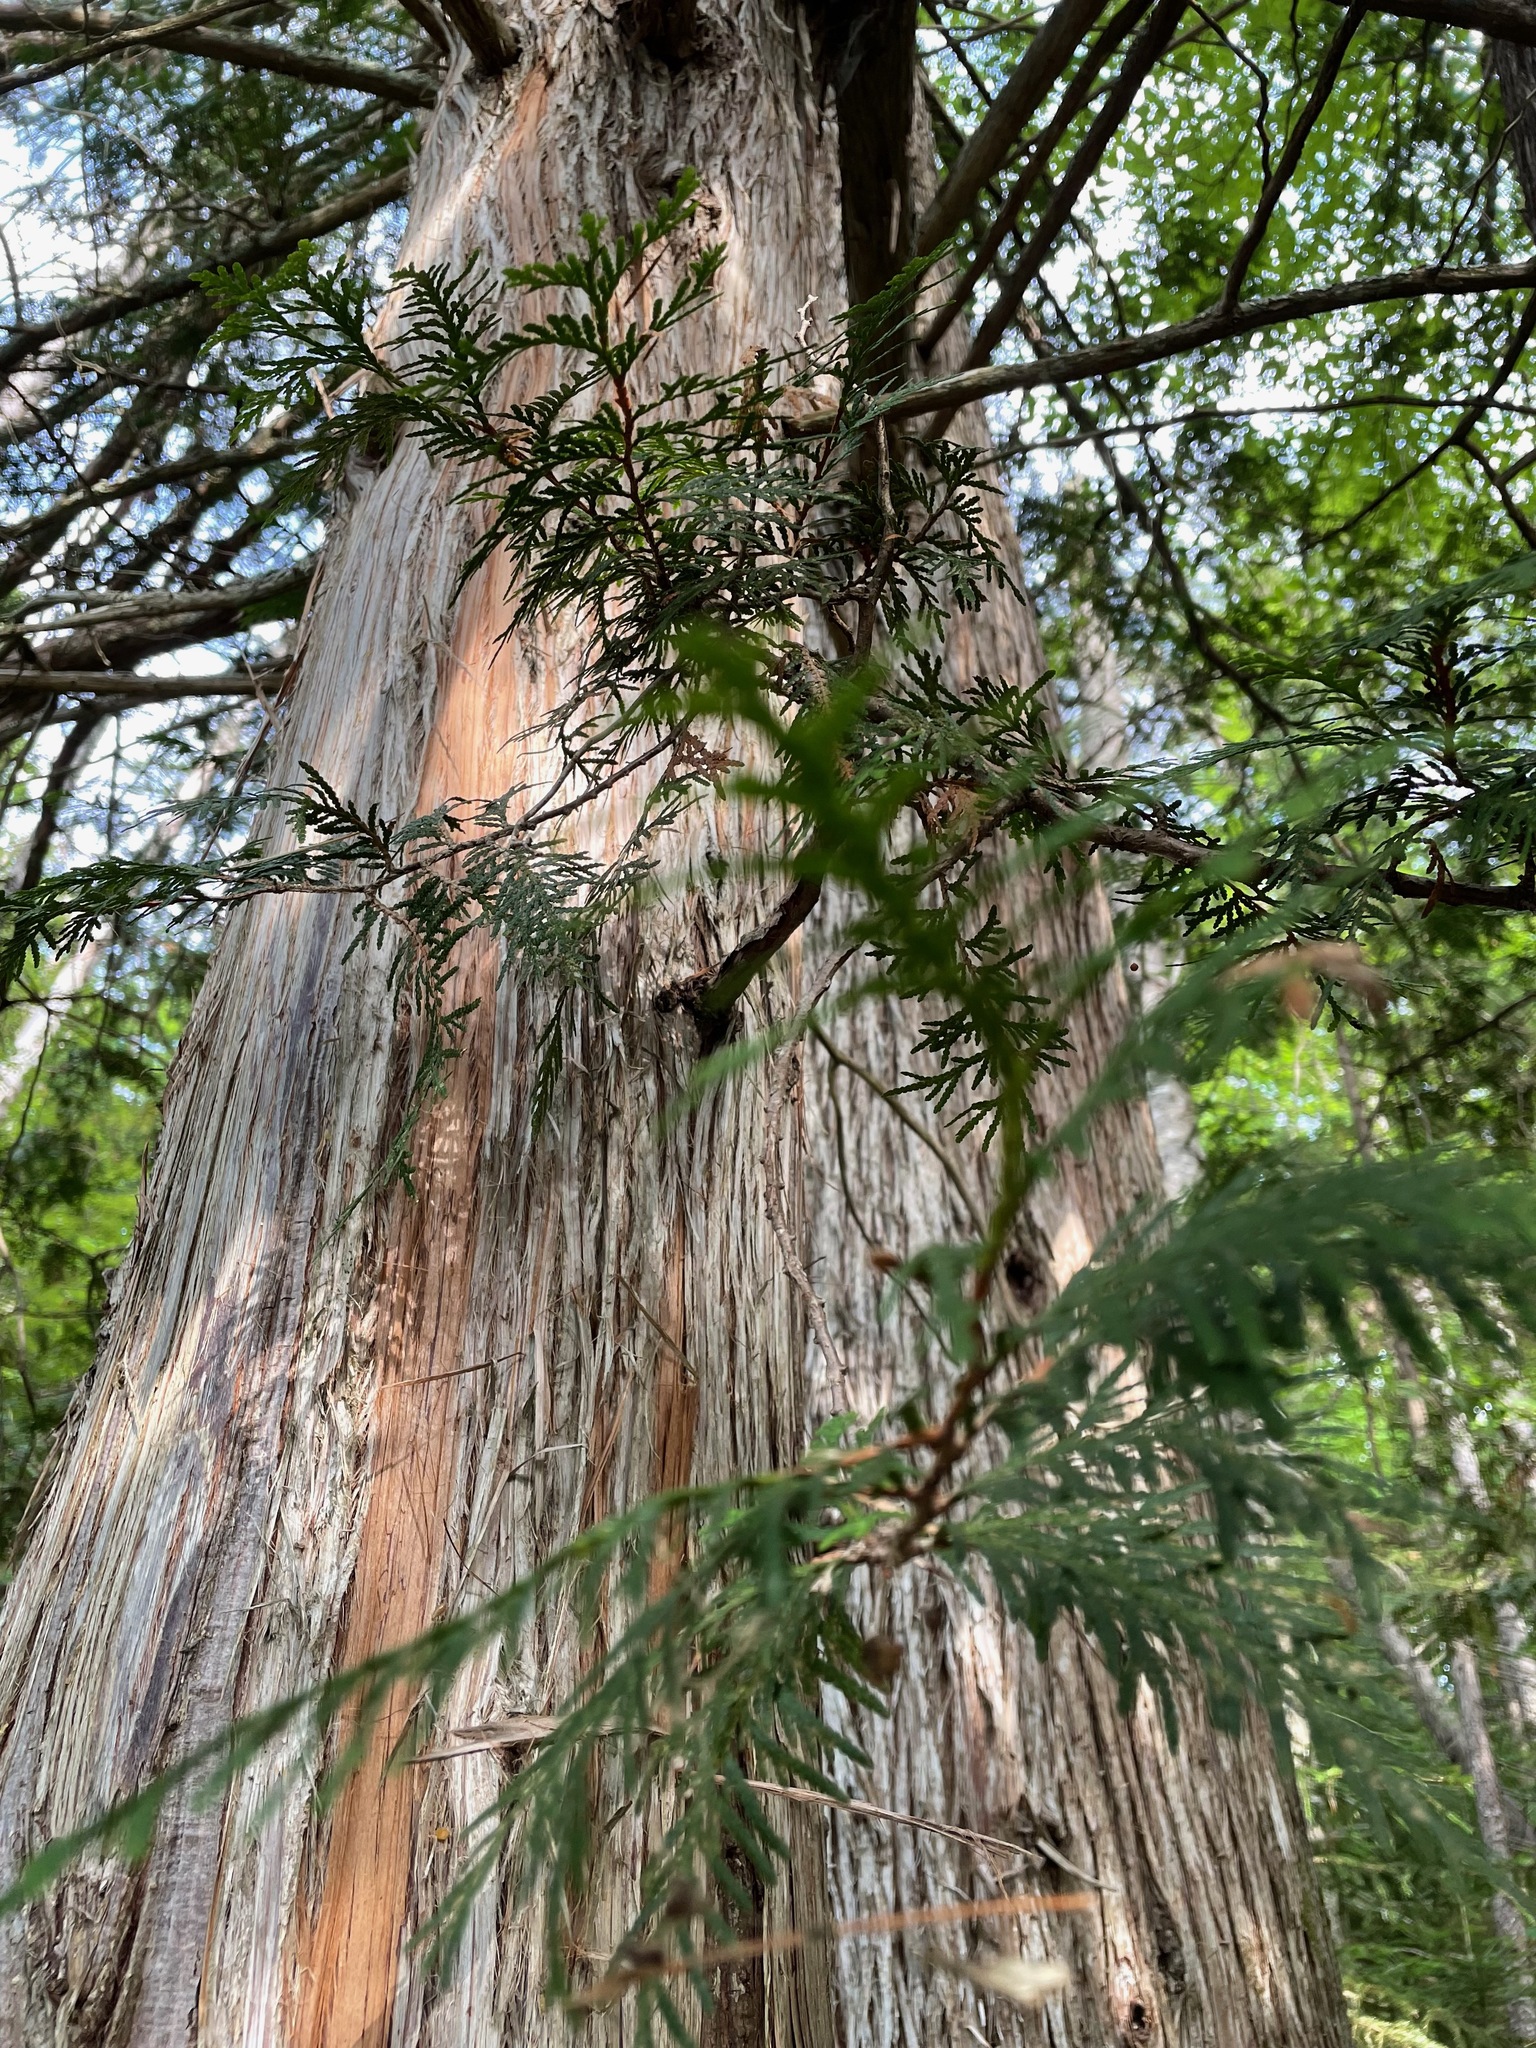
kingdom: Plantae
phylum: Tracheophyta
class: Pinopsida
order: Pinales
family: Cupressaceae
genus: Thuja
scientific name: Thuja occidentalis
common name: Northern white-cedar
